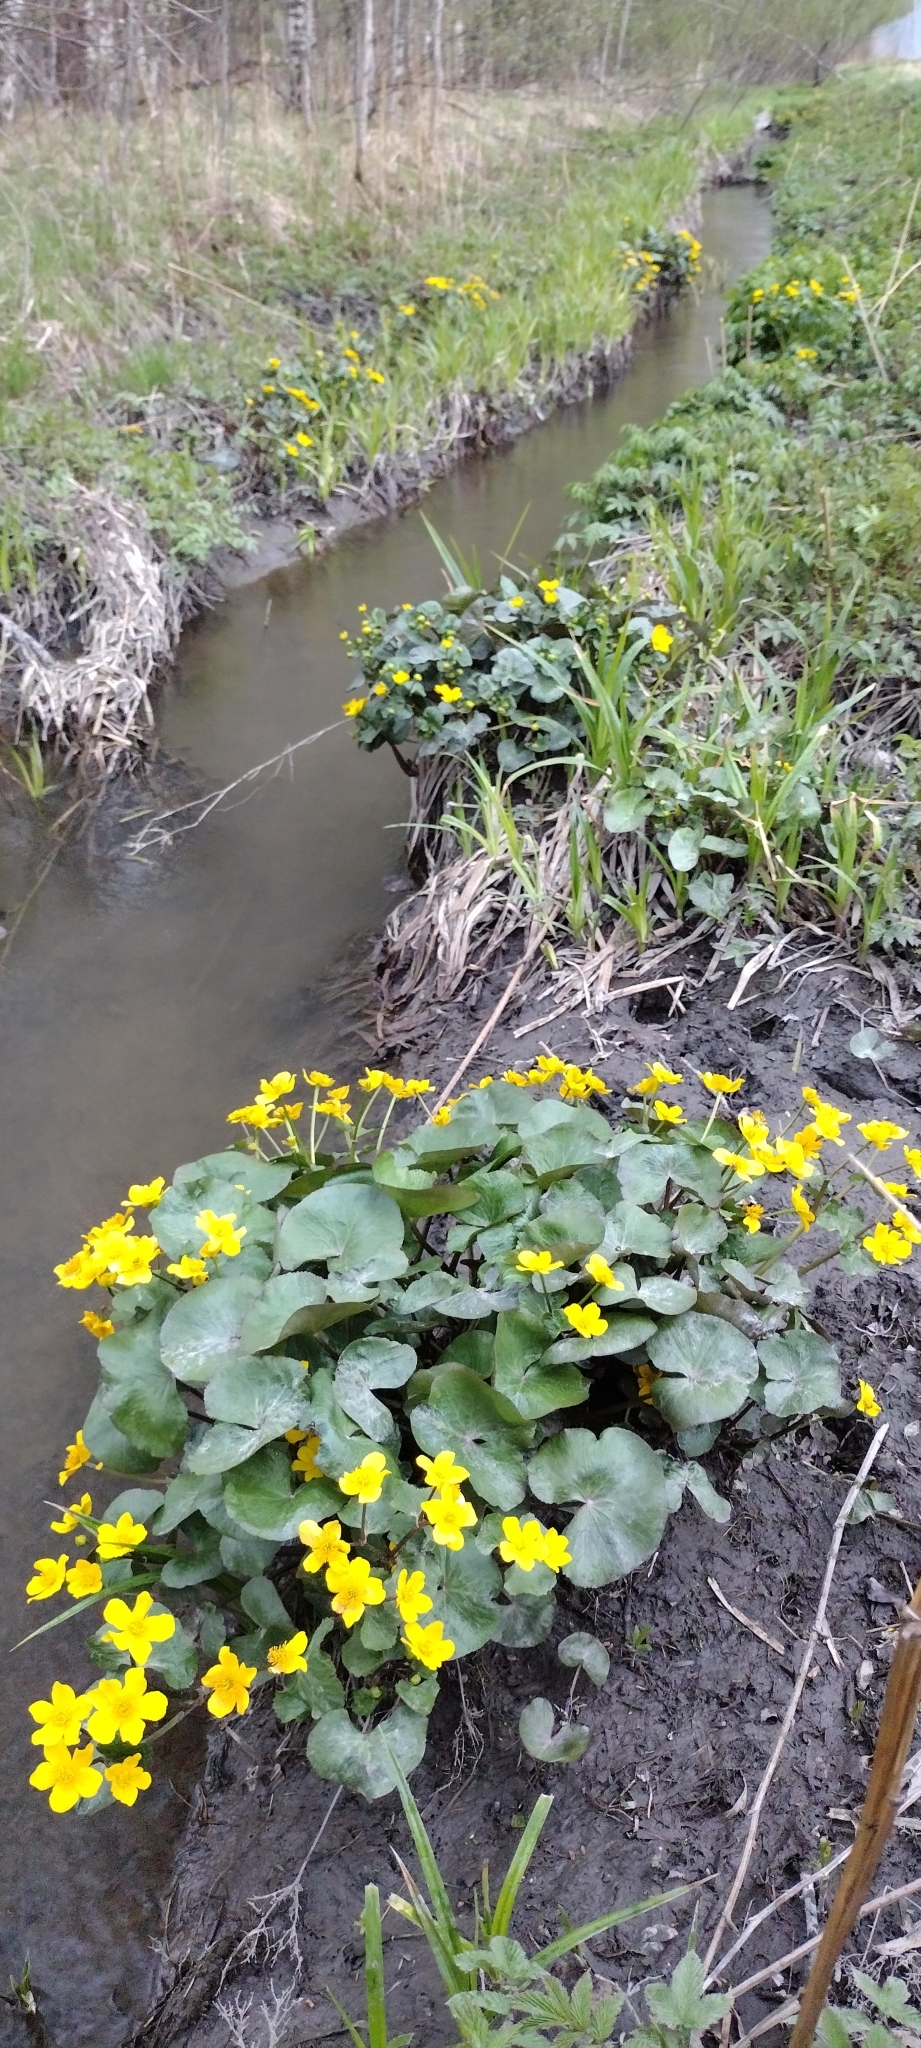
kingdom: Plantae
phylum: Tracheophyta
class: Magnoliopsida
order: Ranunculales
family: Ranunculaceae
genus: Caltha
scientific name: Caltha palustris
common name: Marsh marigold
